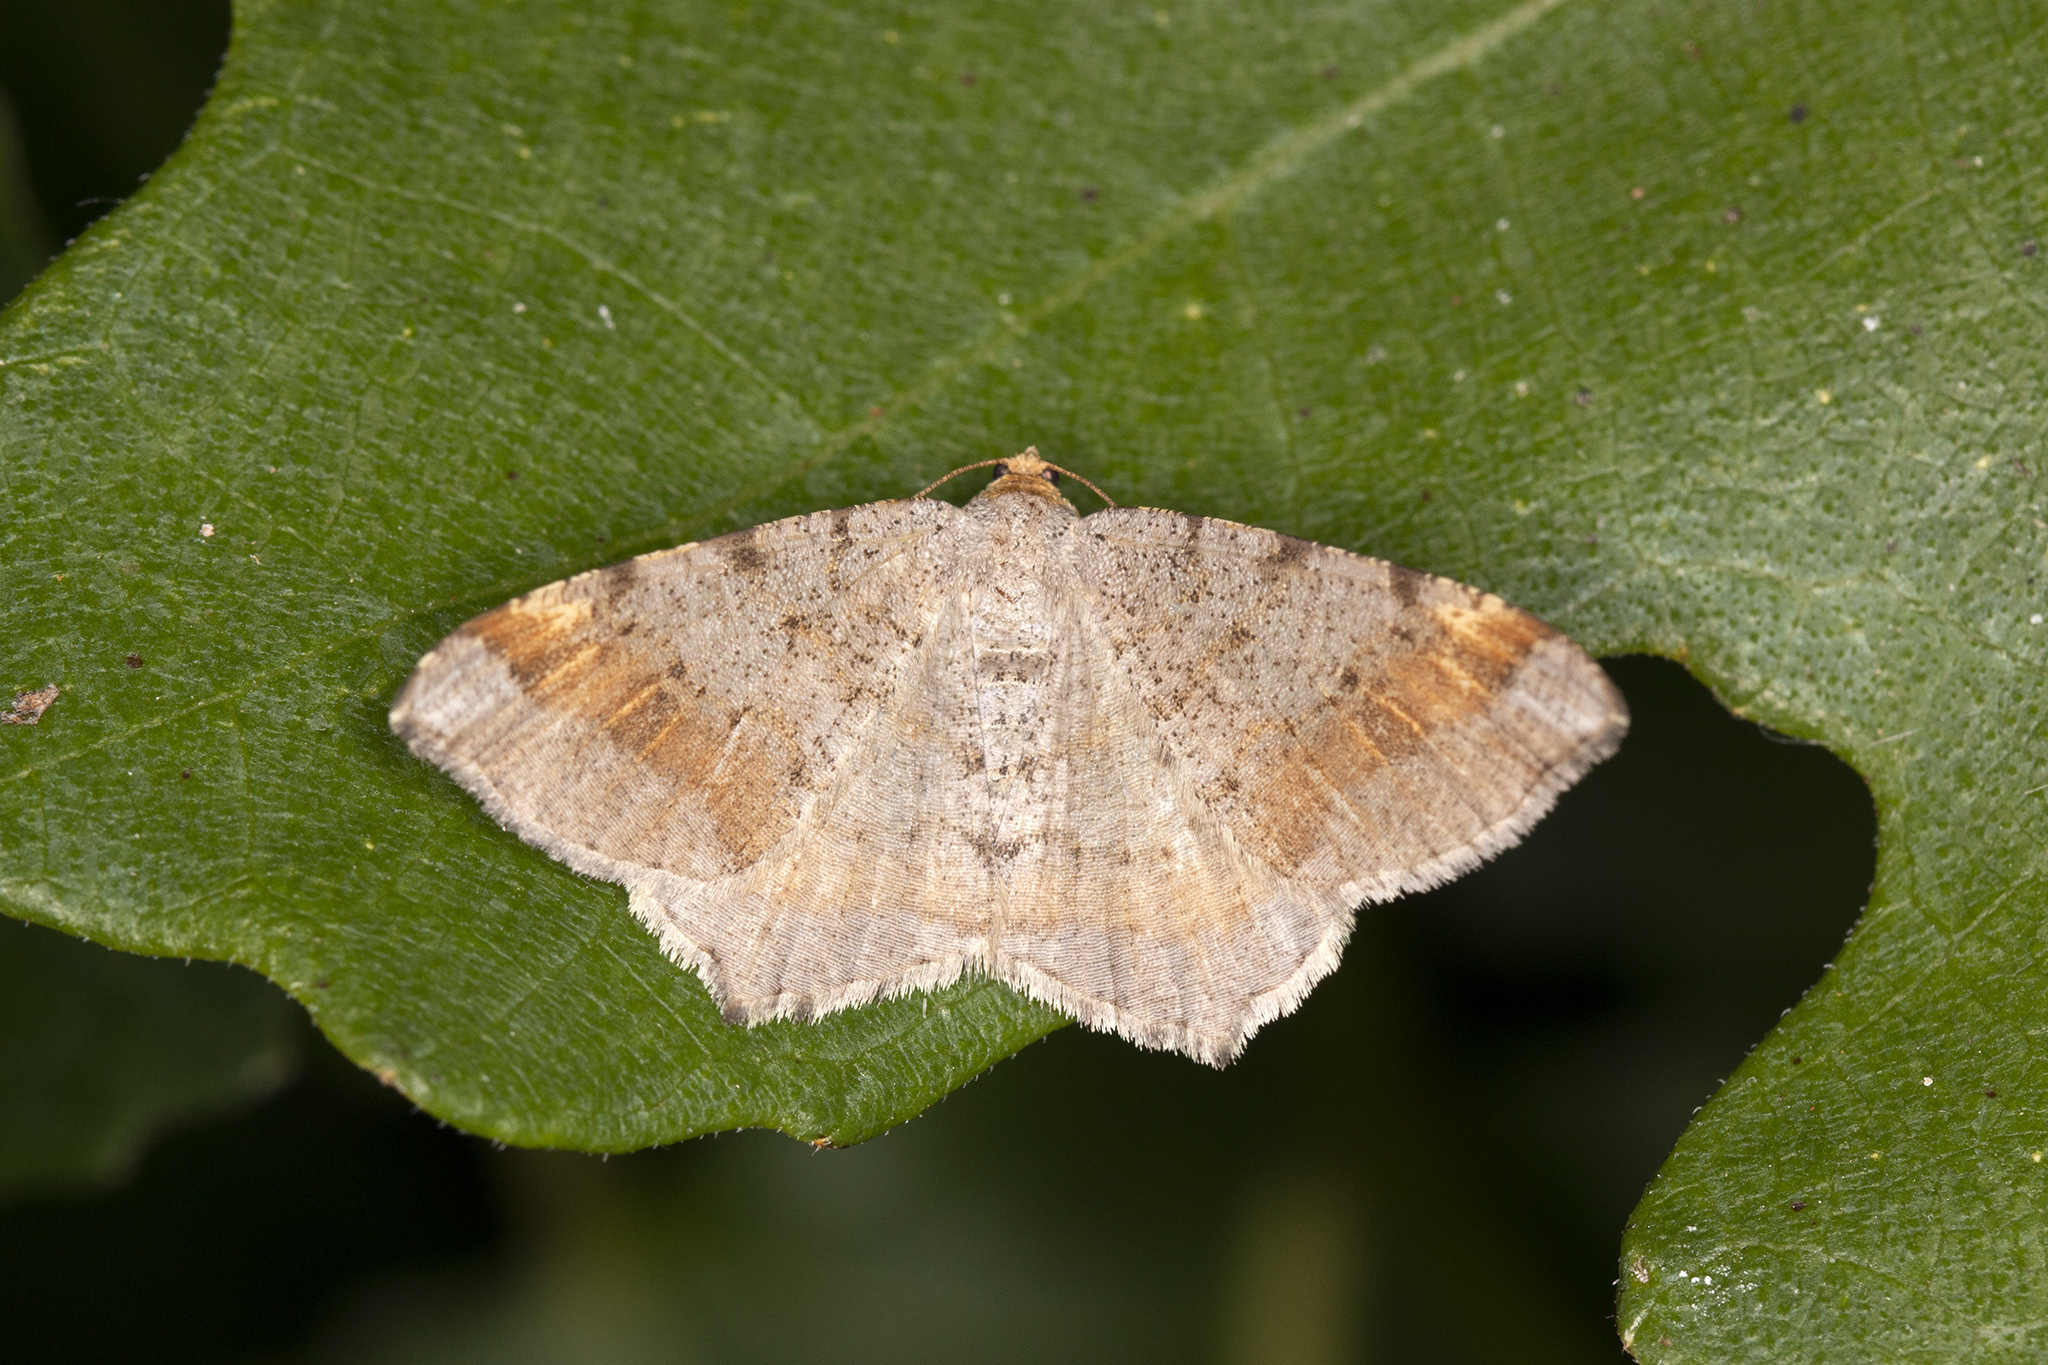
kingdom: Animalia
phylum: Arthropoda
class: Insecta
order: Lepidoptera
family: Geometridae
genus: Macaria
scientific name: Macaria liturata
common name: Tawny-barred angle
